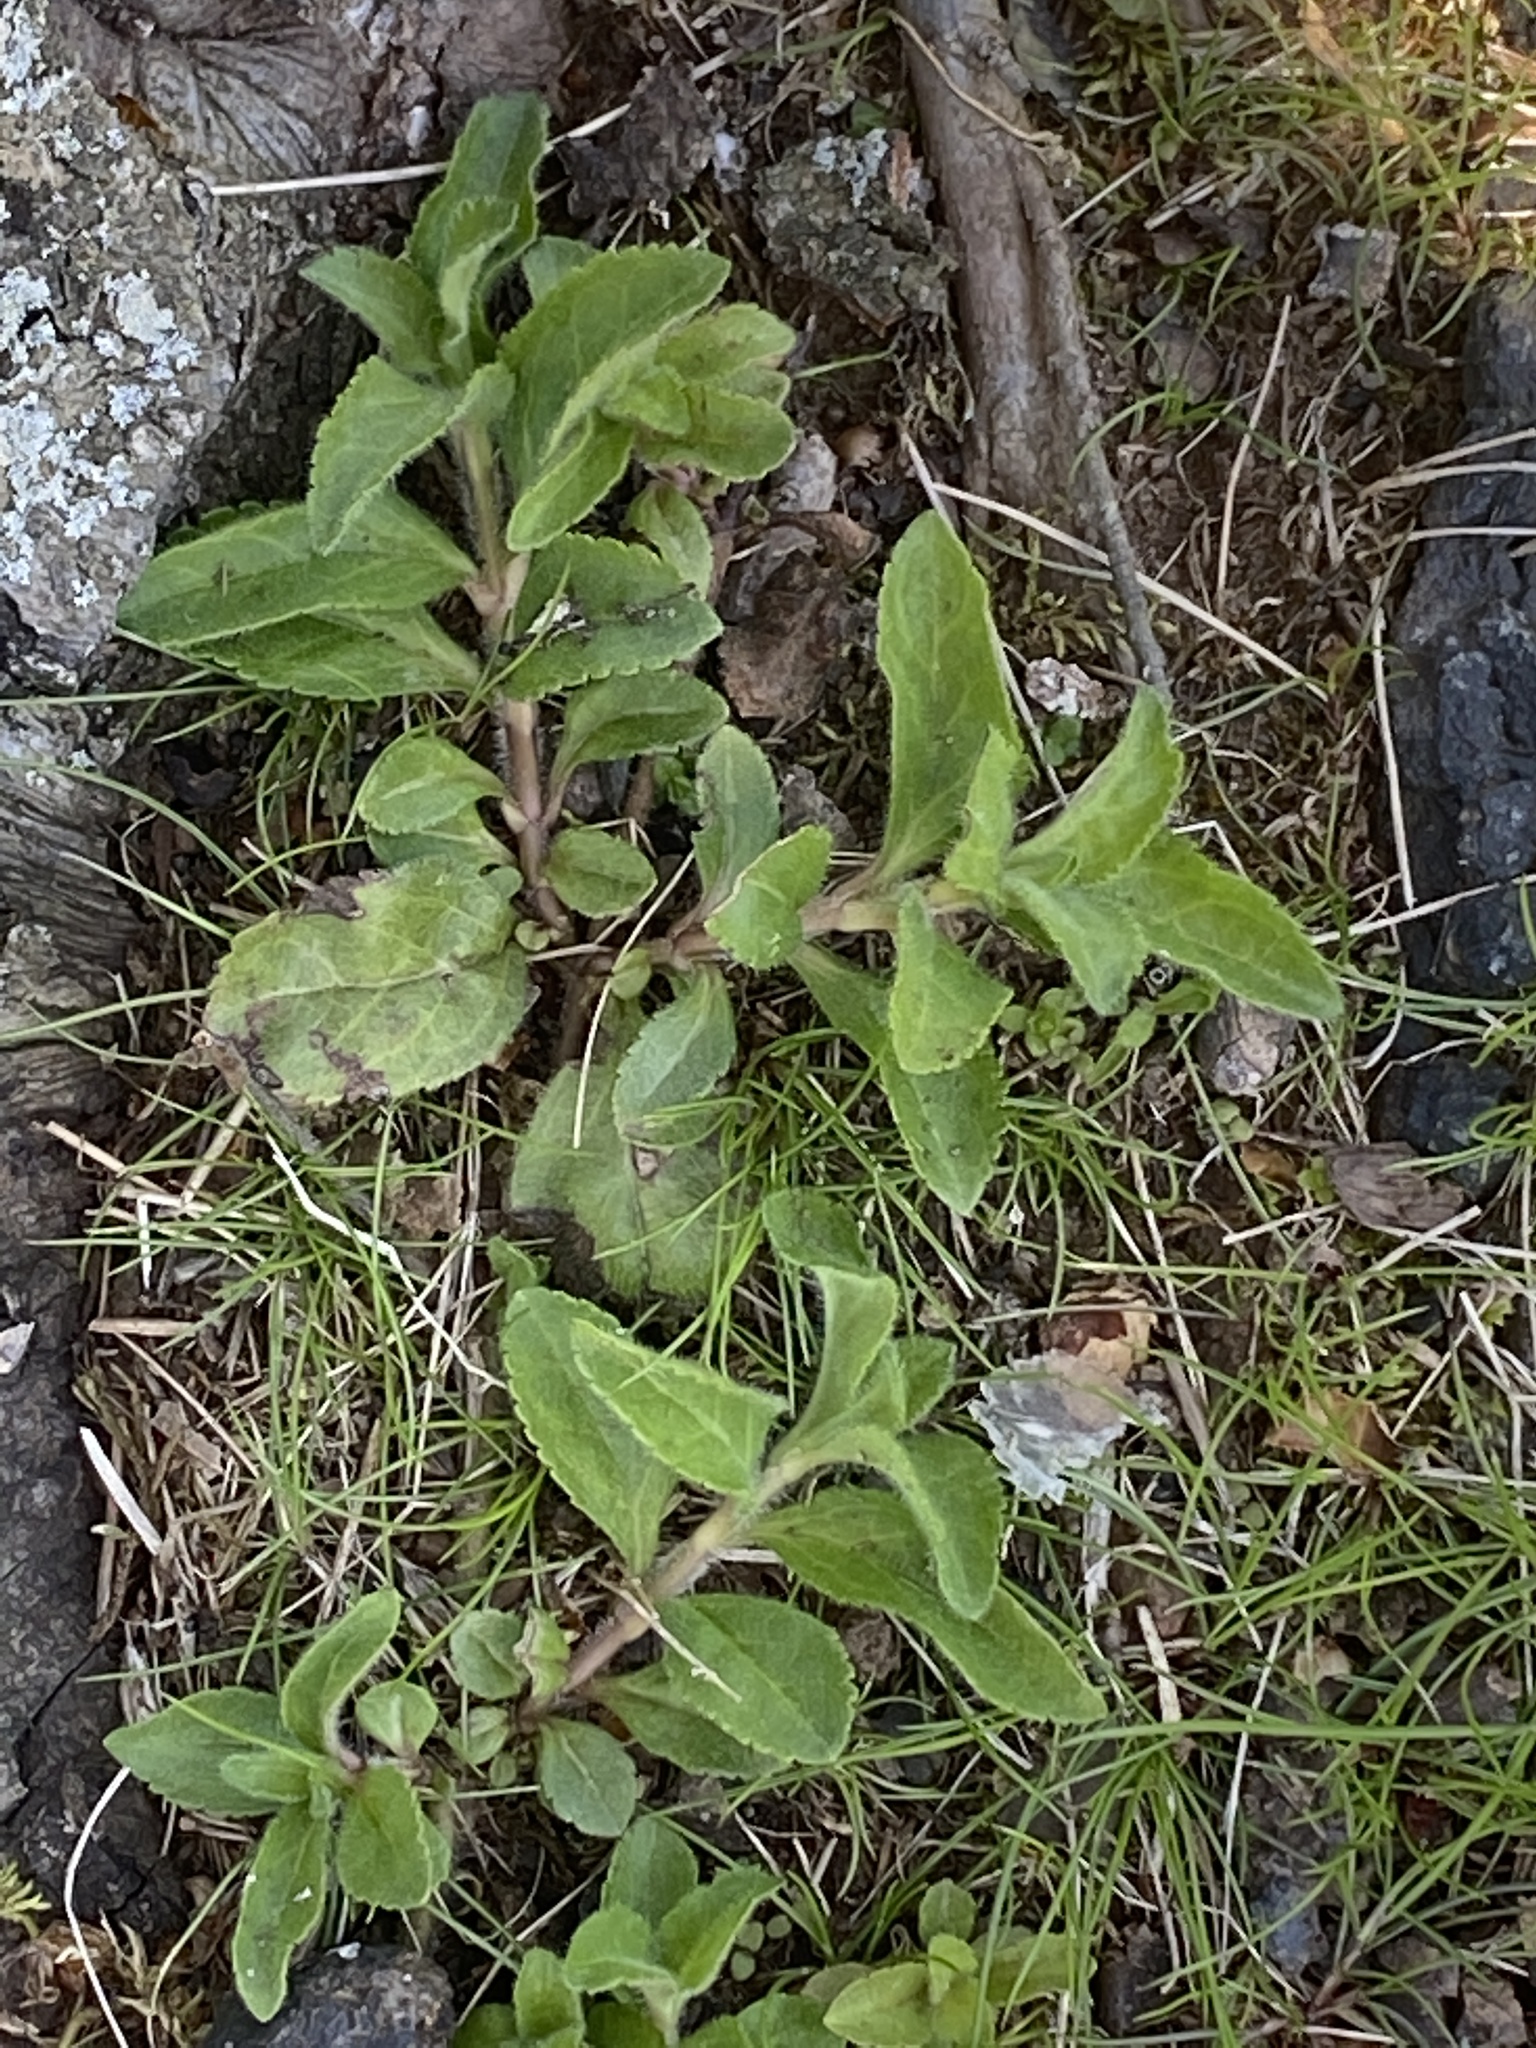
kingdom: Plantae
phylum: Tracheophyta
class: Magnoliopsida
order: Lamiales
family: Plantaginaceae
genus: Veronica
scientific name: Veronica officinalis
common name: Common speedwell
